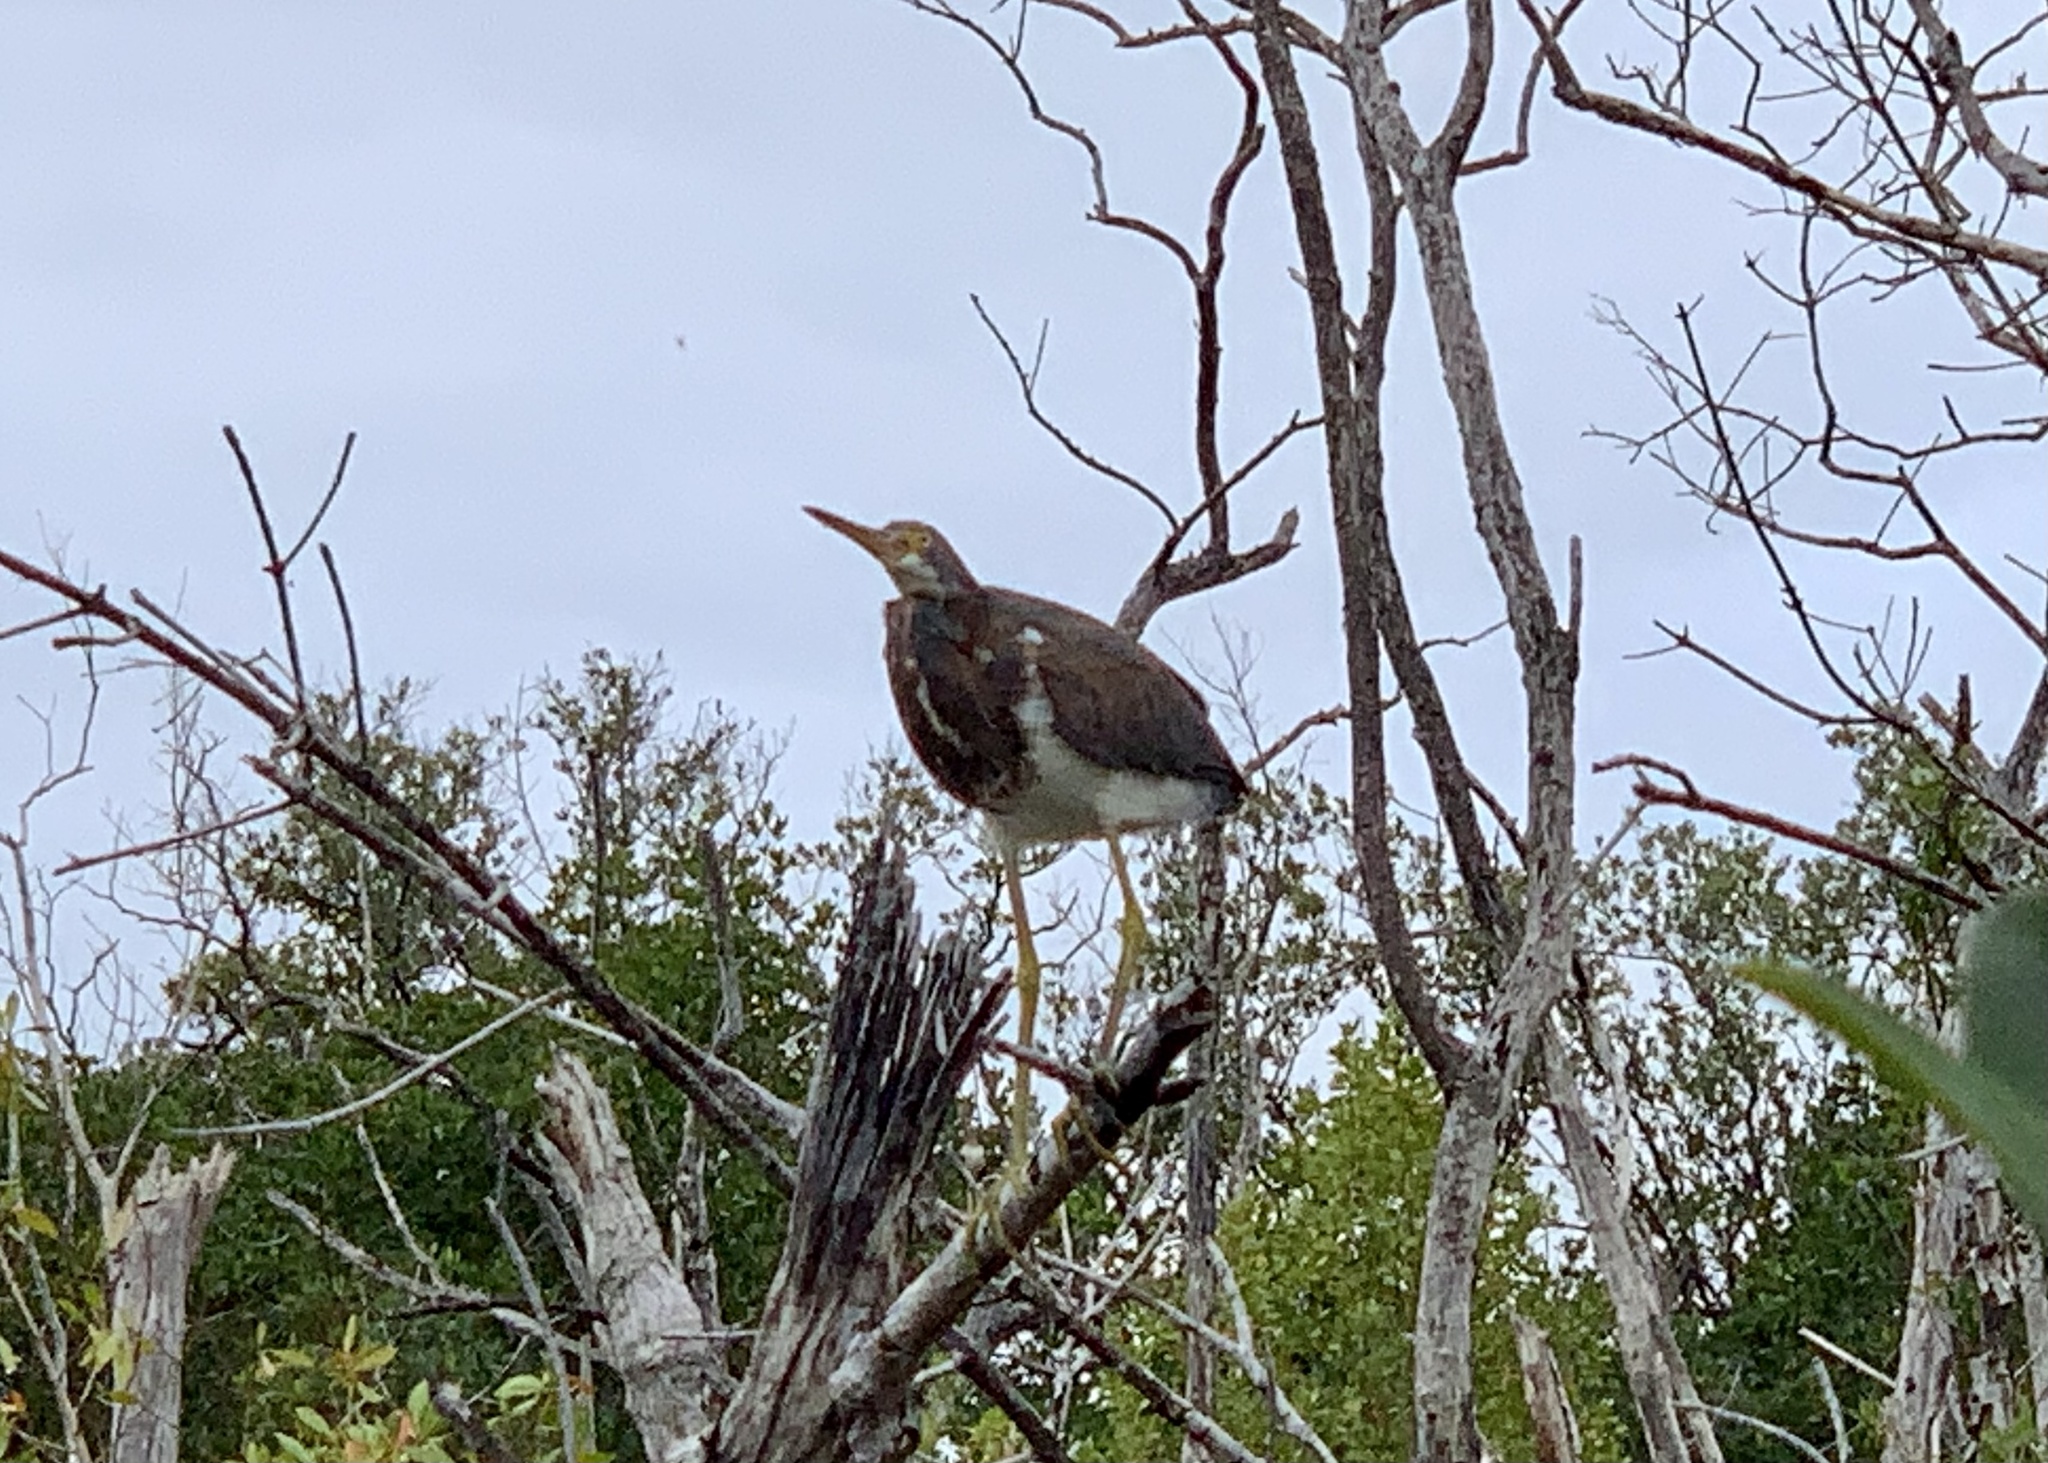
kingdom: Animalia
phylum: Chordata
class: Aves
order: Pelecaniformes
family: Ardeidae
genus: Egretta
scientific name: Egretta tricolor
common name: Tricolored heron
